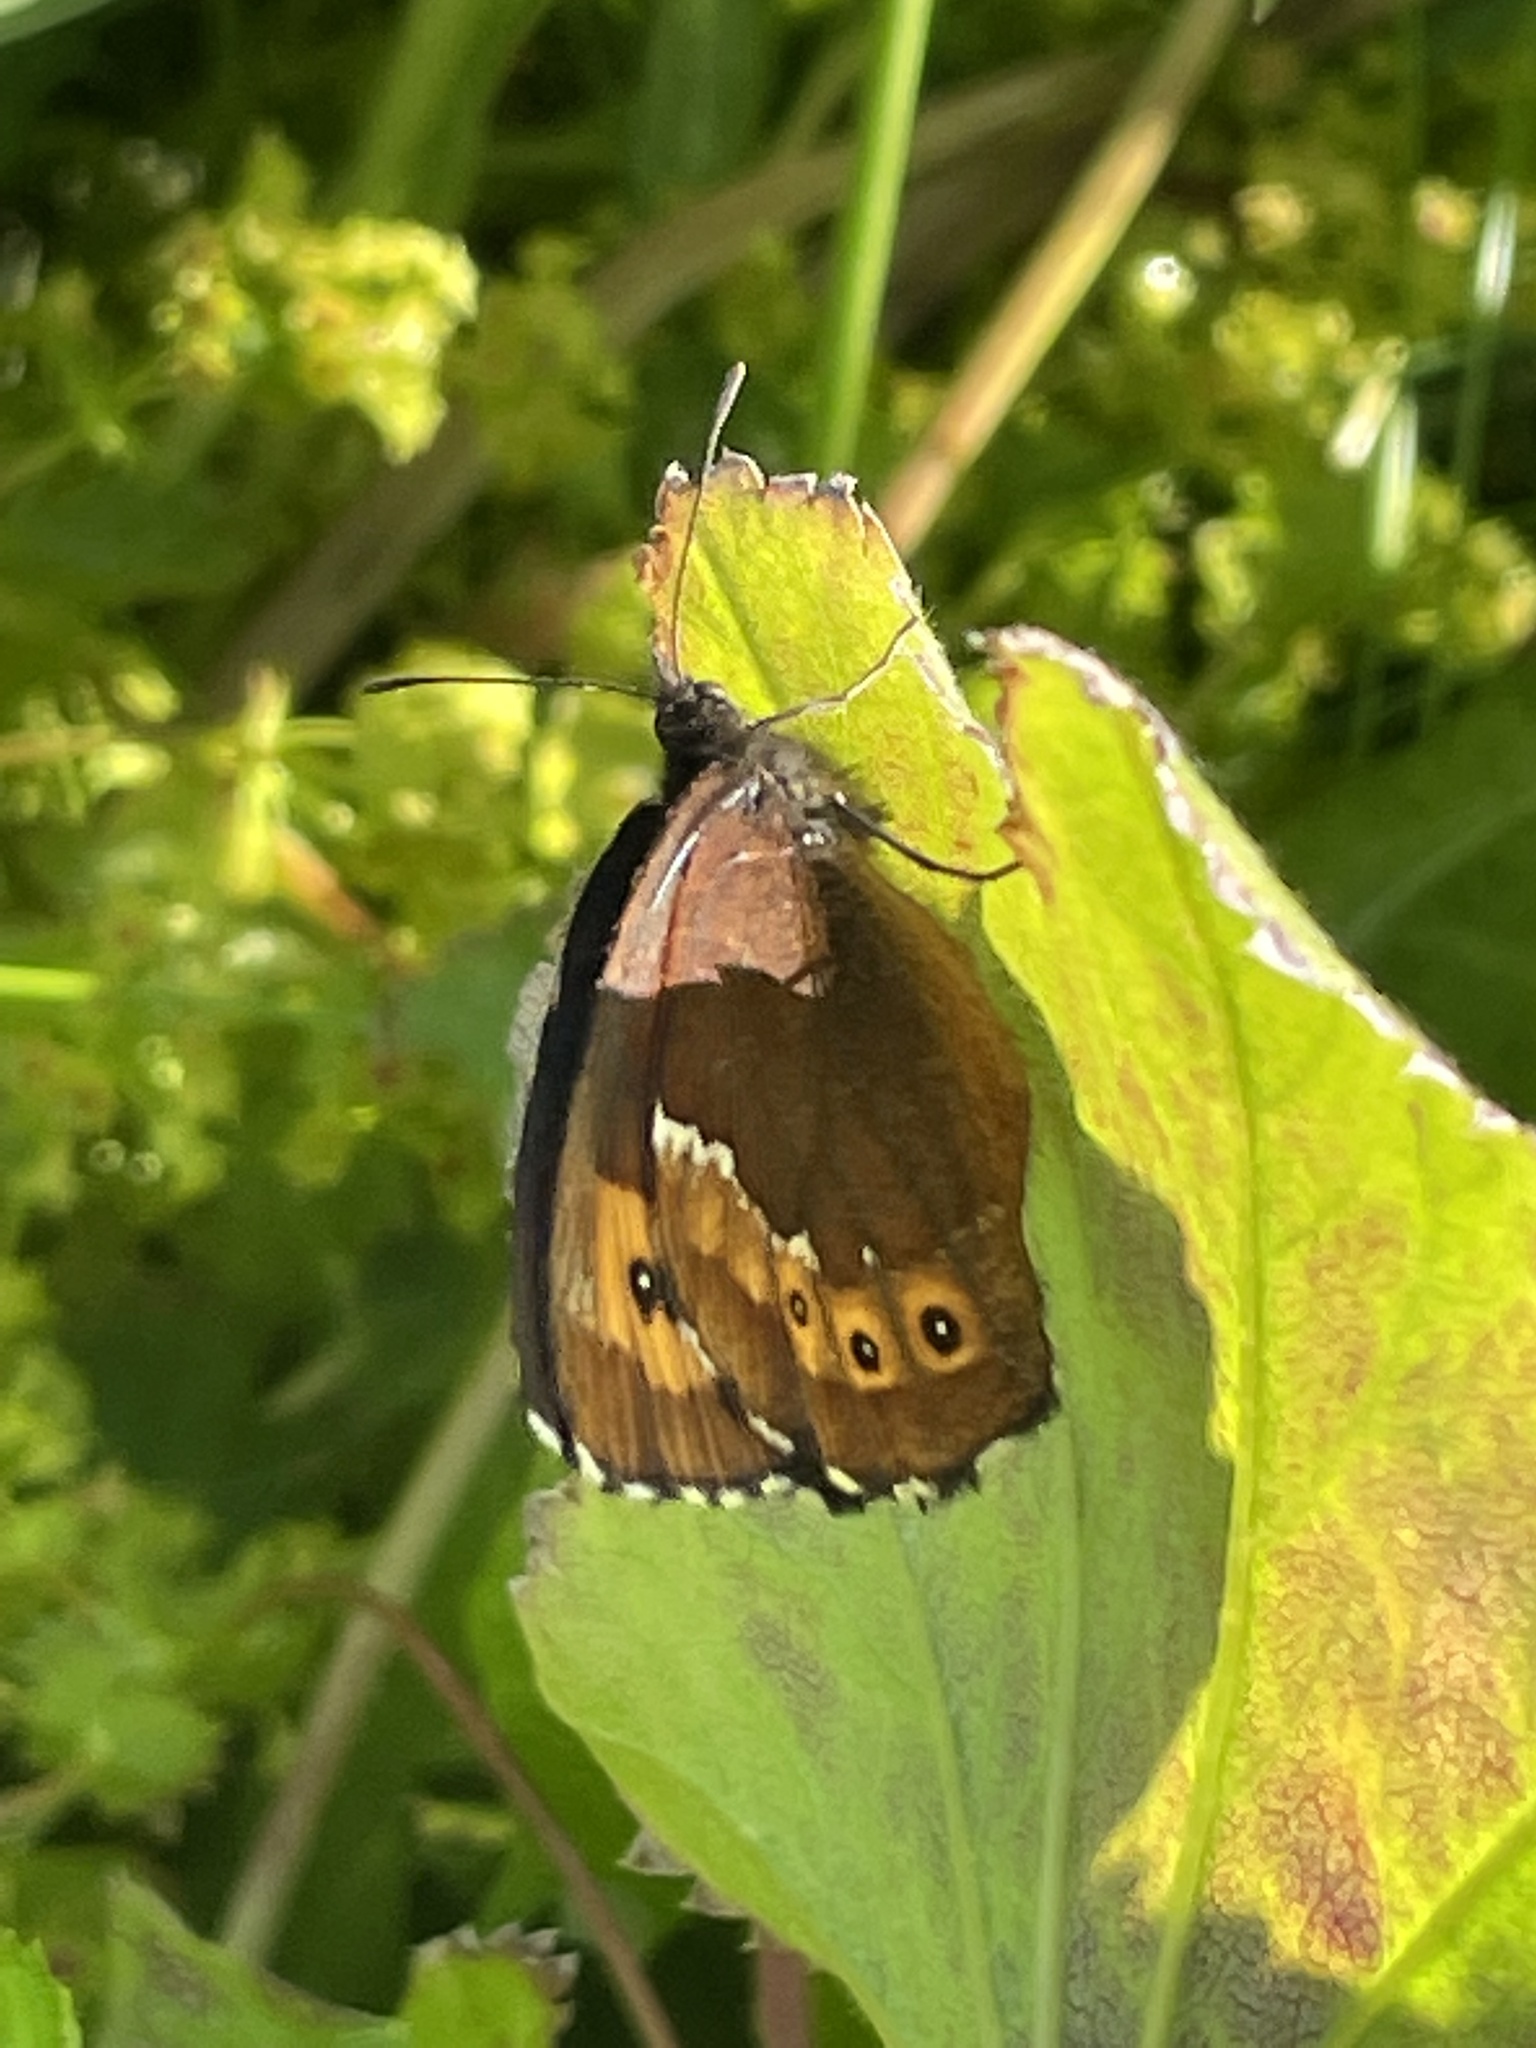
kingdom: Animalia
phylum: Arthropoda
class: Insecta
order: Lepidoptera
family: Nymphalidae
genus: Erebia
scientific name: Erebia ligea
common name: Arran brown
